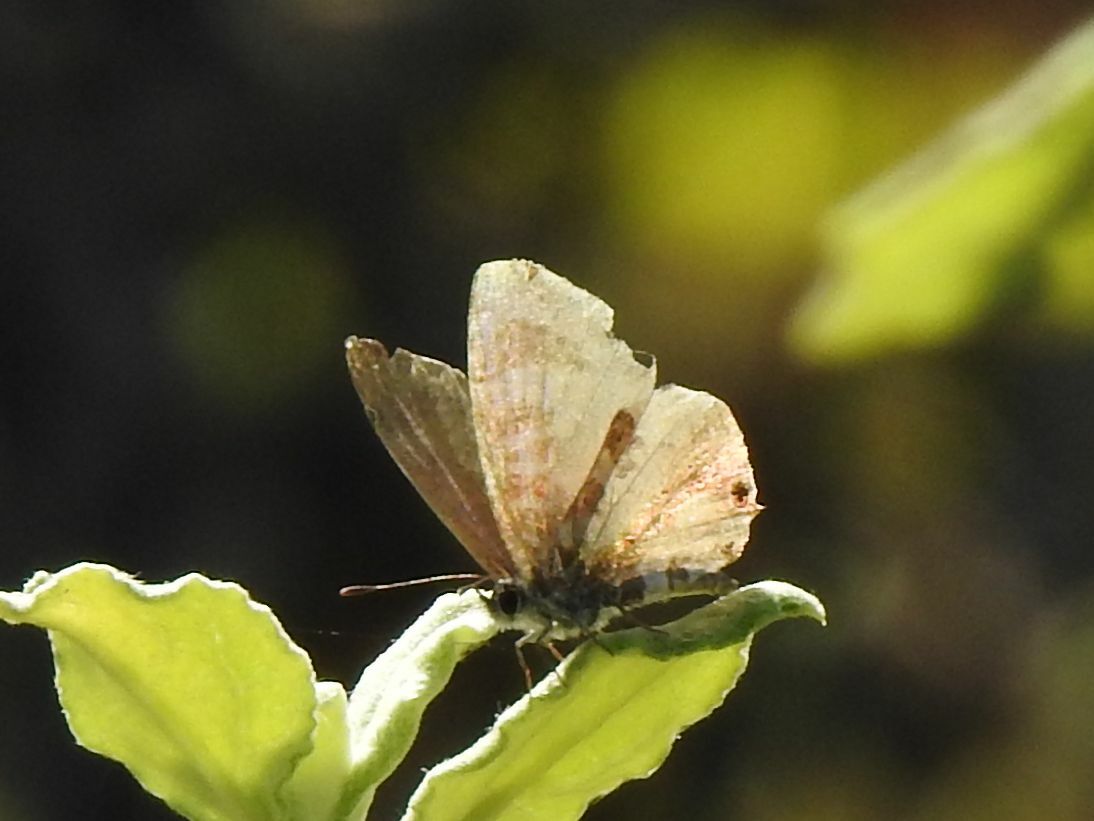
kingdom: Animalia
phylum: Arthropoda
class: Insecta
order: Lepidoptera
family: Lycaenidae
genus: Cacyreus
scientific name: Cacyreus lingeus
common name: Bush bronze
